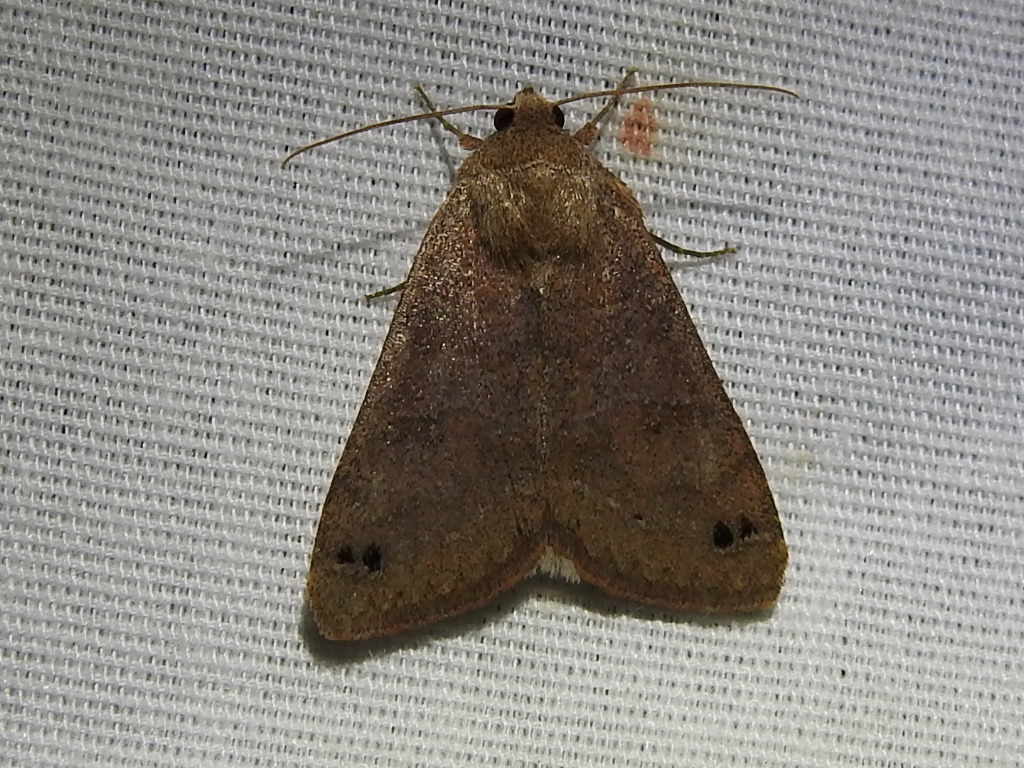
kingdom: Animalia
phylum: Arthropoda
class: Insecta
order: Lepidoptera
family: Erebidae
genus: Cissusa
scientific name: Cissusa spadix
